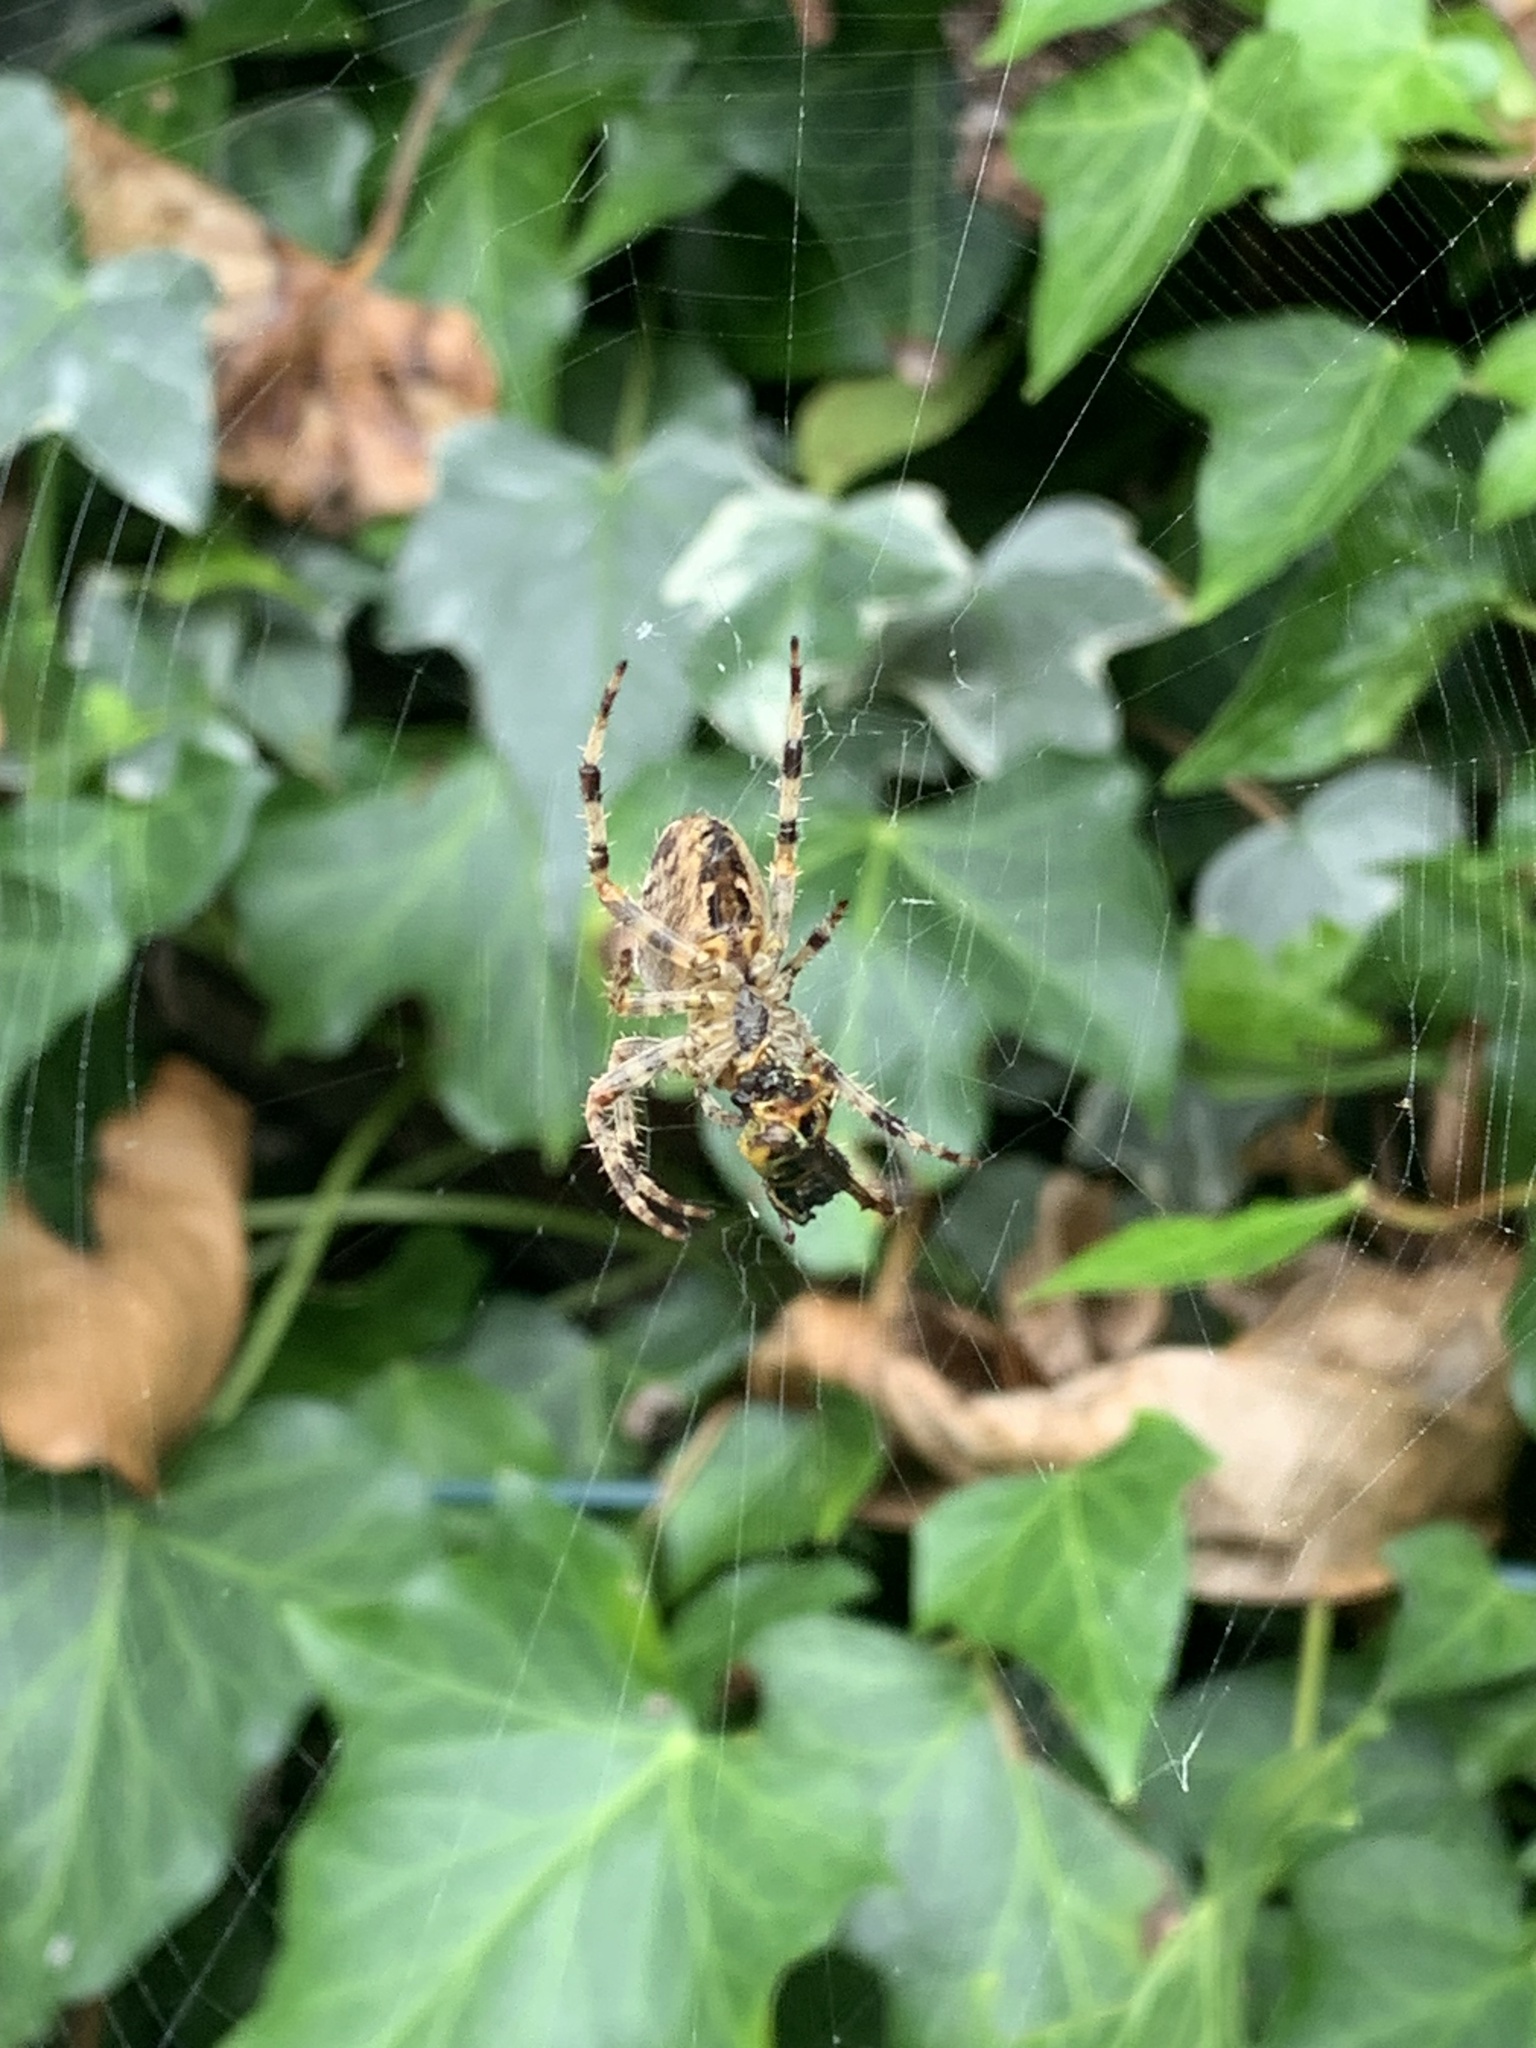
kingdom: Animalia
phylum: Arthropoda
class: Arachnida
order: Araneae
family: Araneidae
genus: Araneus
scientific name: Araneus diadematus
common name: Cross orbweaver
